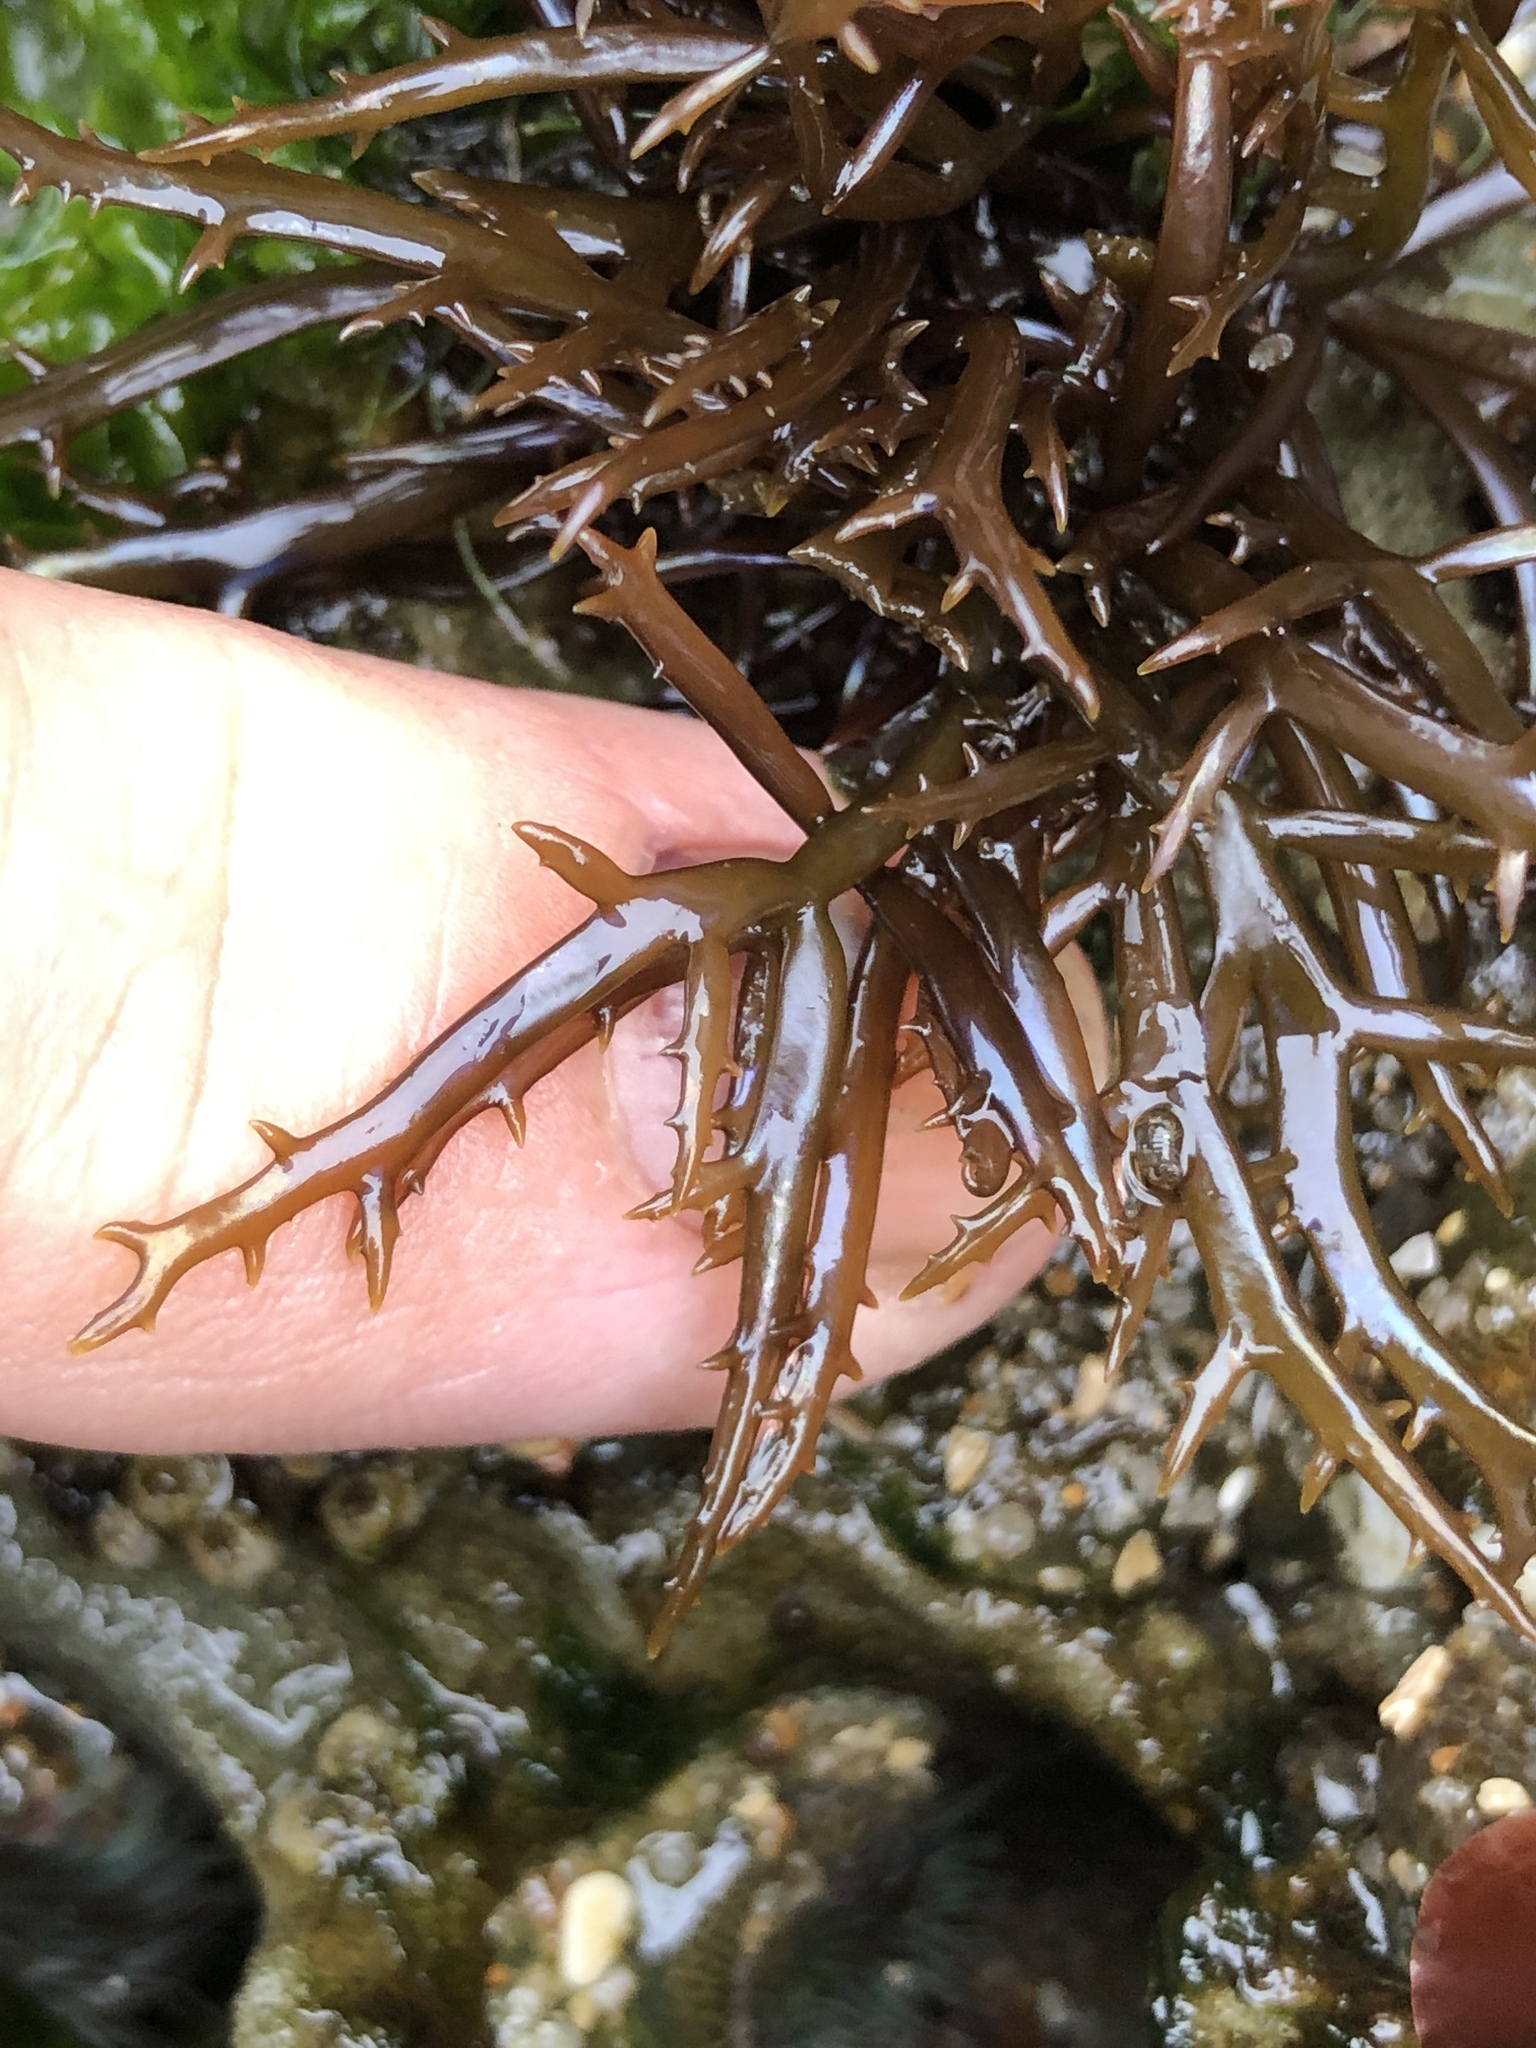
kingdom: Plantae
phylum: Rhodophyta
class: Florideophyceae
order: Gigartinales
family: Gigartinaceae
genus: Chondracanthus
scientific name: Chondracanthus canaliculatus
